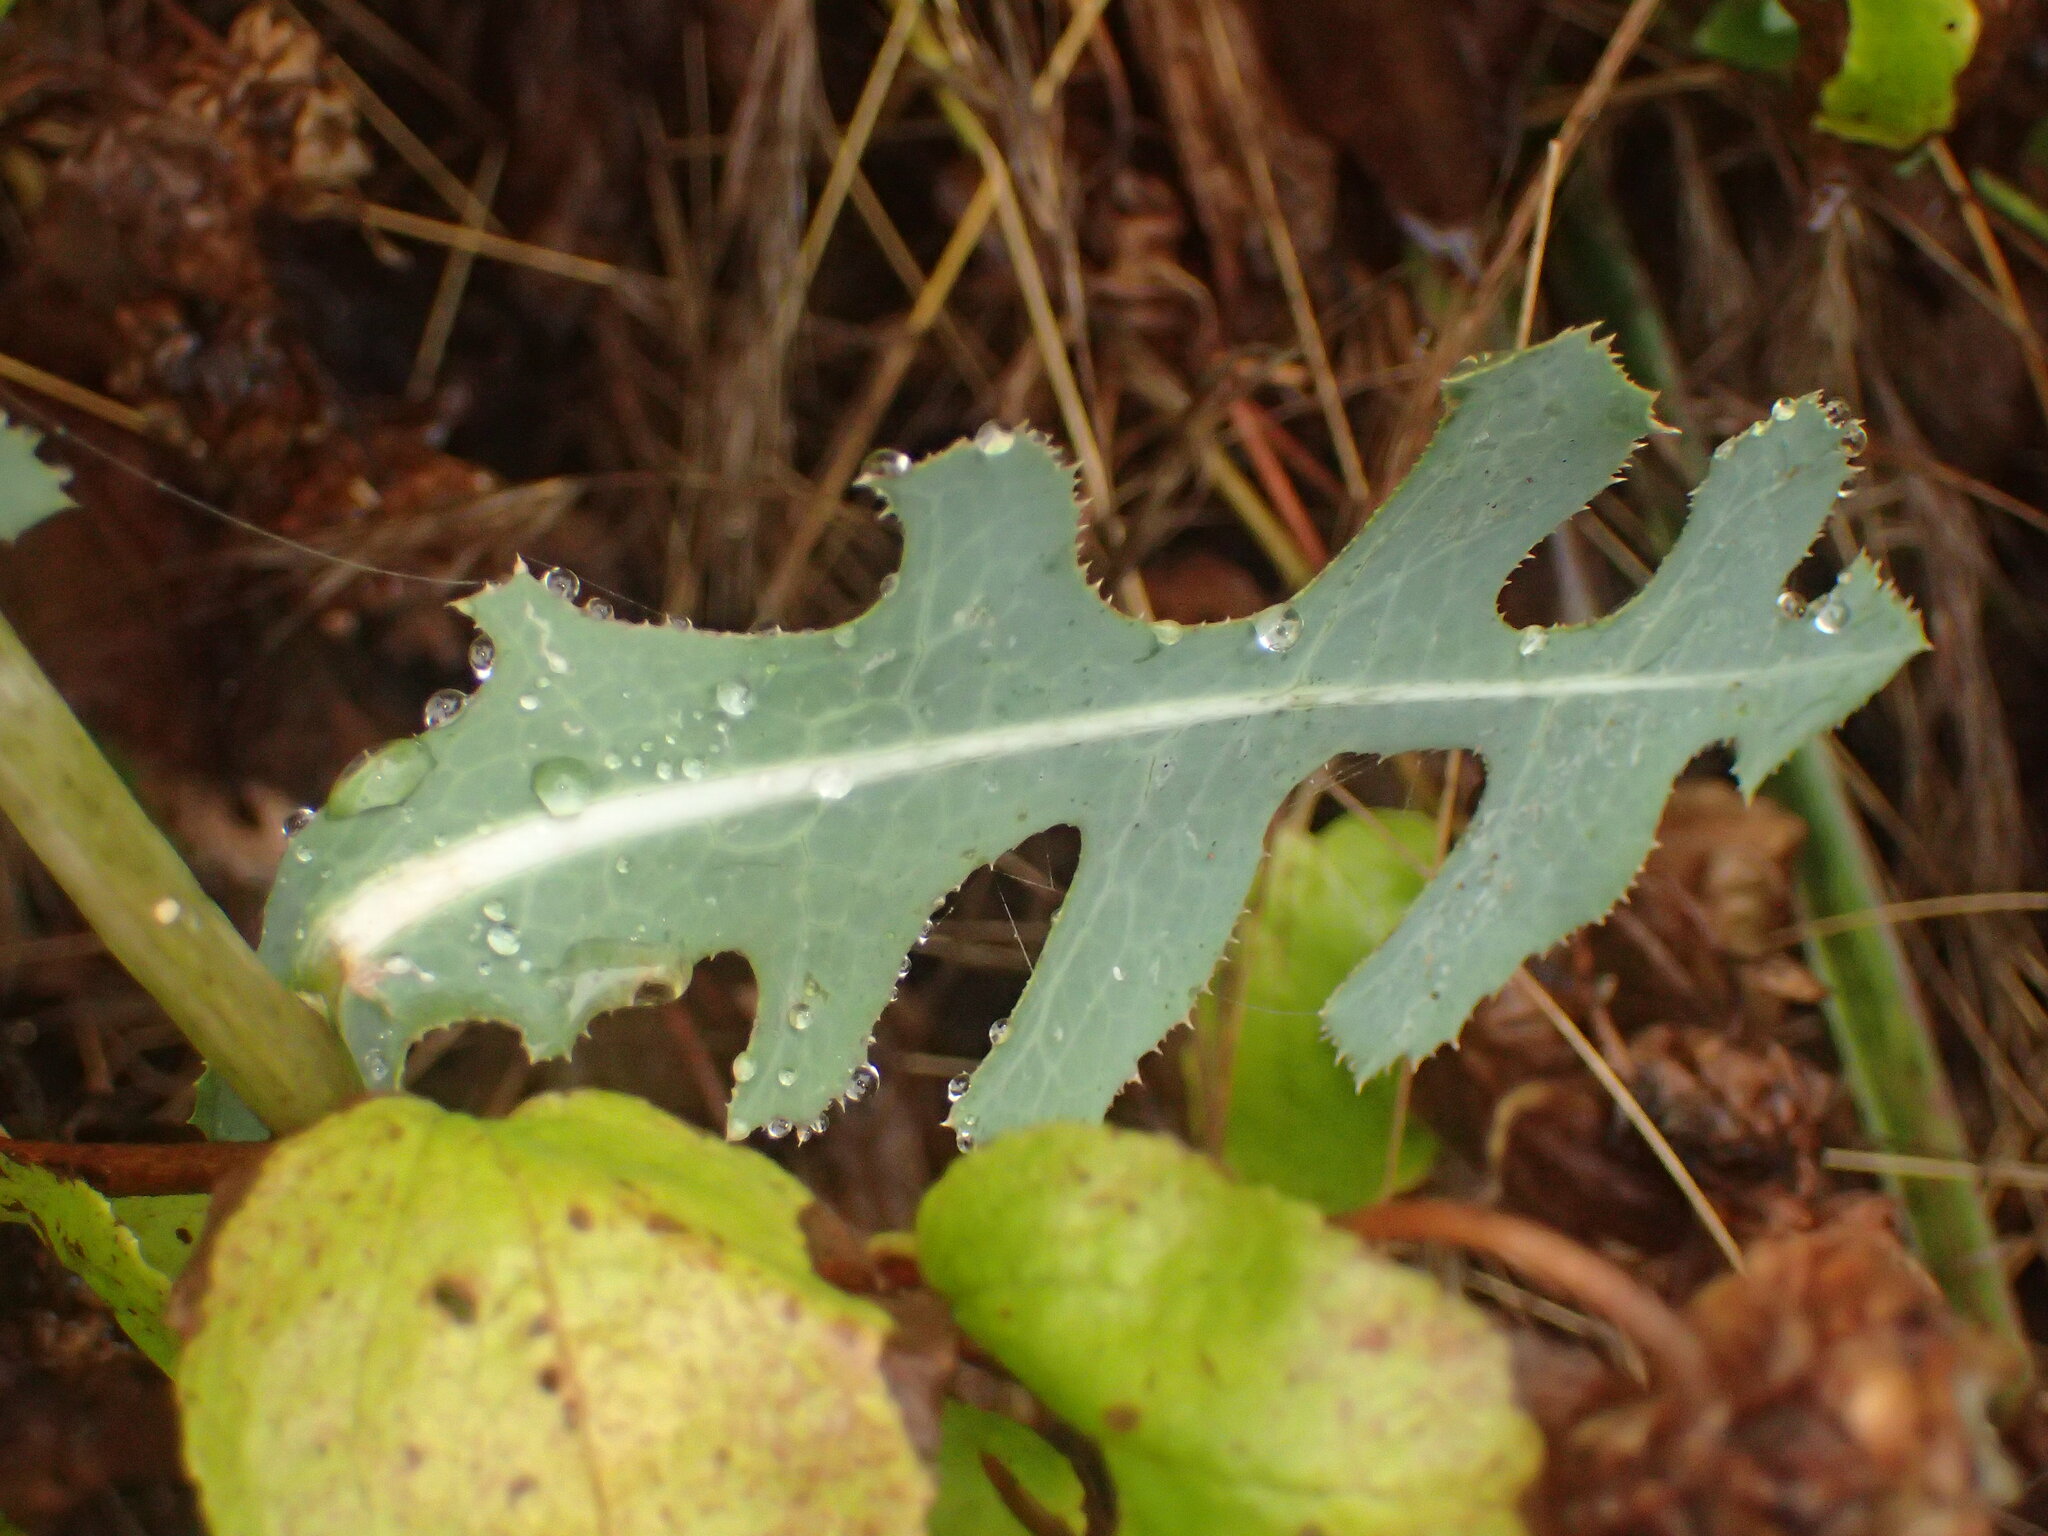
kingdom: Plantae
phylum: Tracheophyta
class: Magnoliopsida
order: Asterales
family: Asteraceae
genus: Lactuca
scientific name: Lactuca serriola
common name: Prickly lettuce
